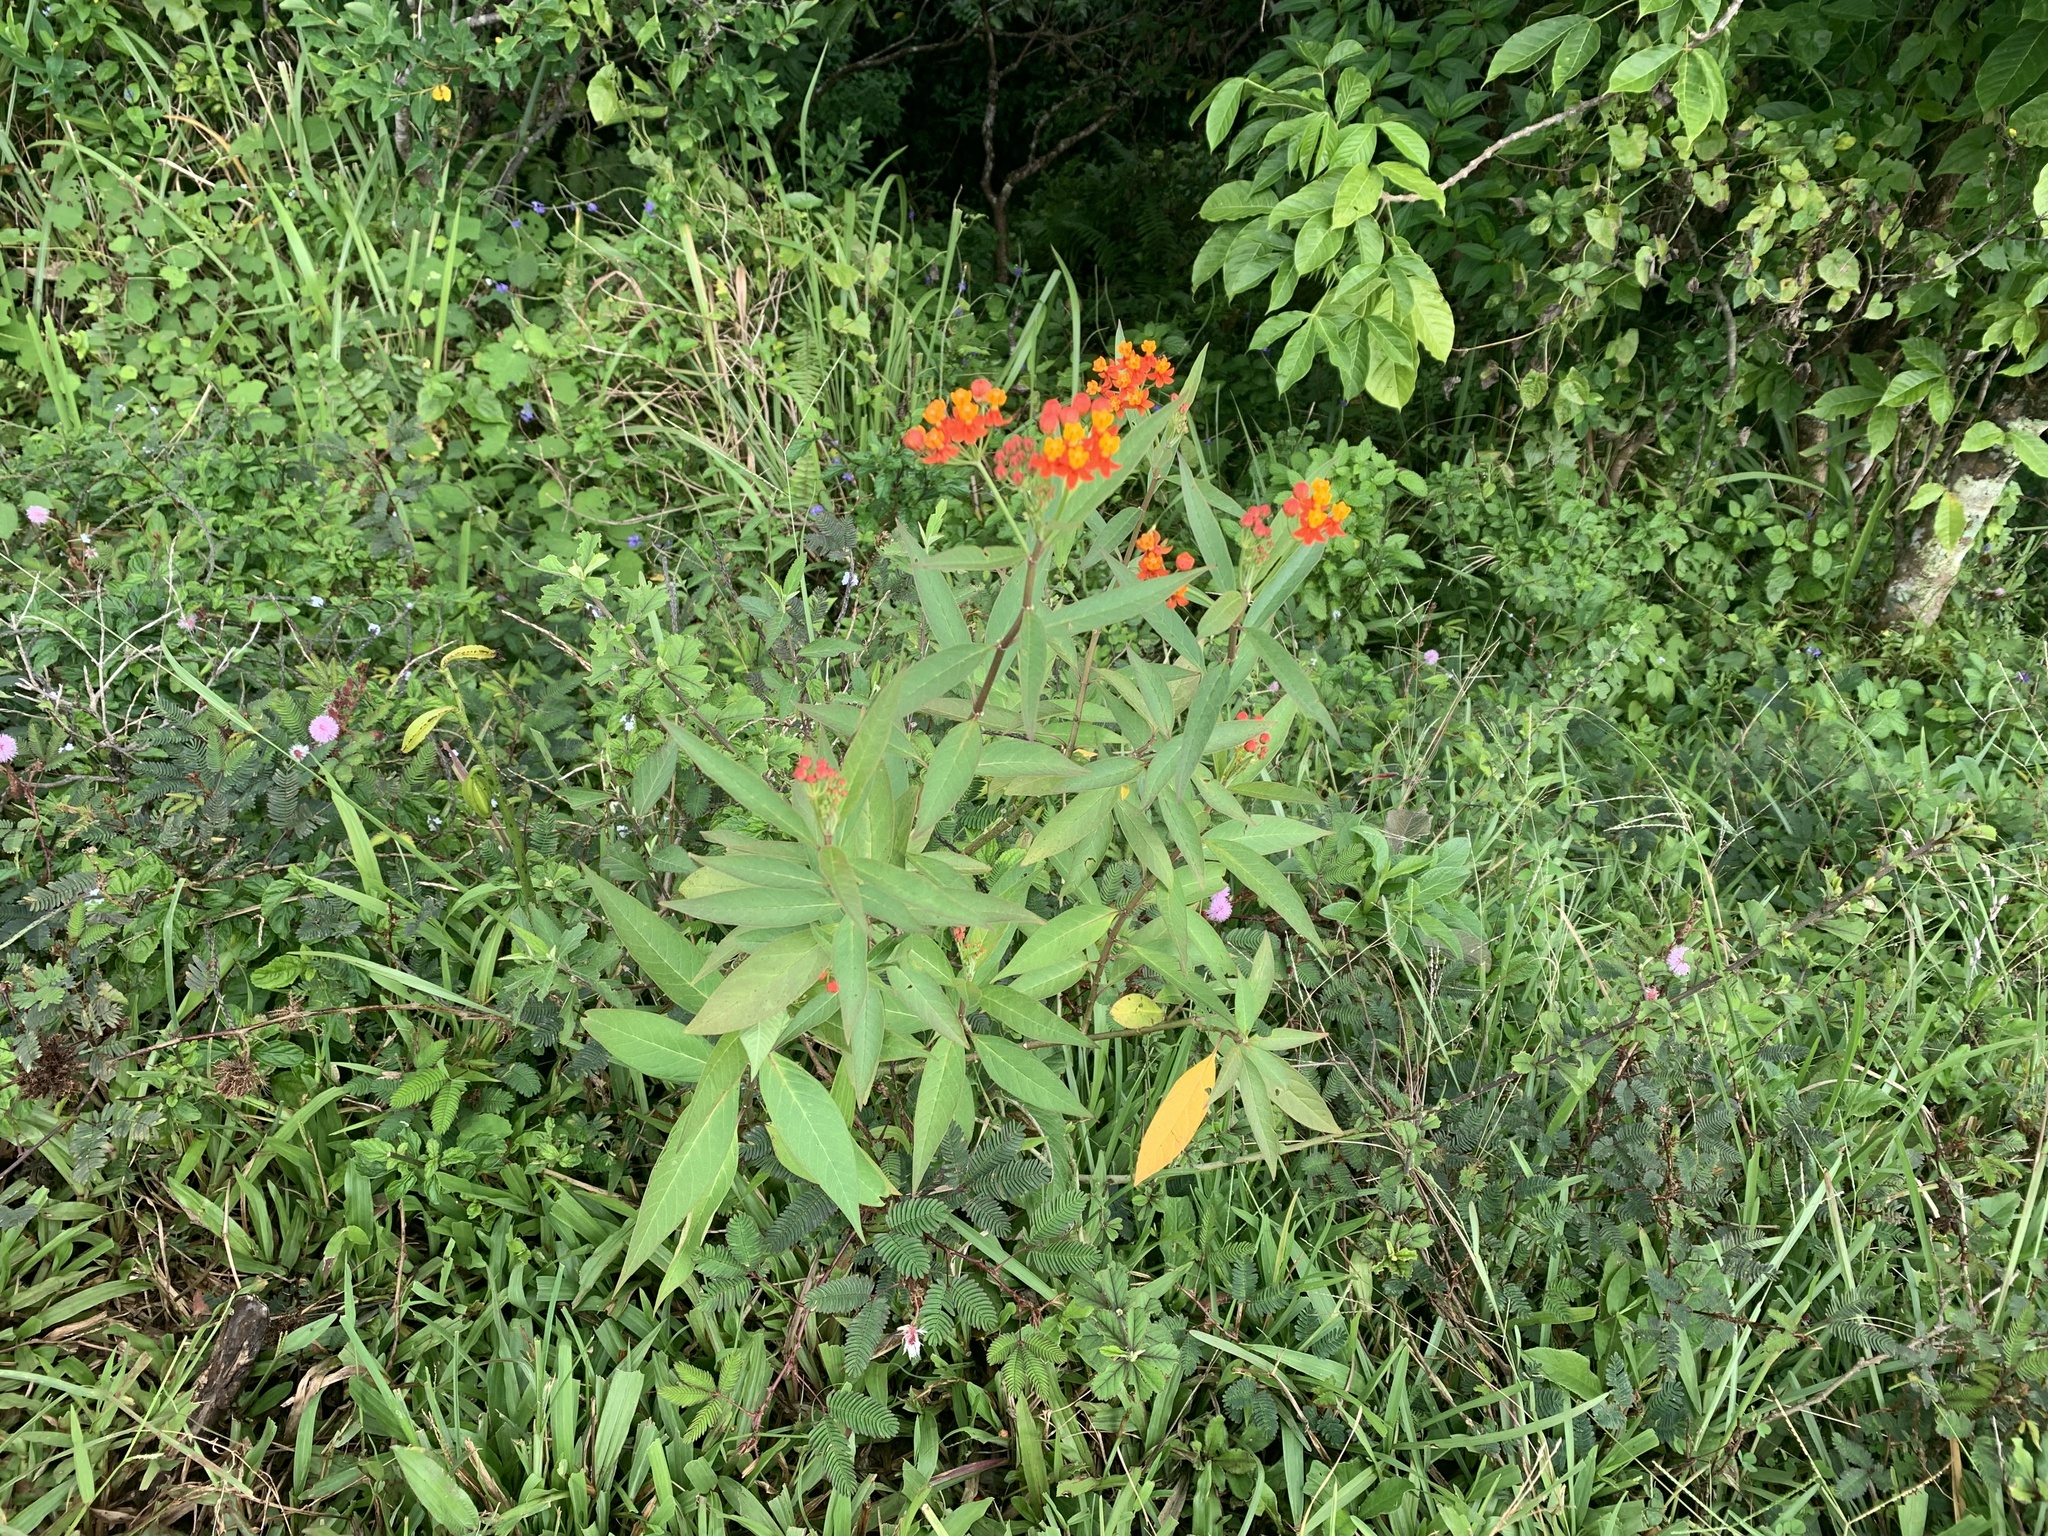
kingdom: Plantae
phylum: Tracheophyta
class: Magnoliopsida
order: Gentianales
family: Apocynaceae
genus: Asclepias
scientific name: Asclepias curassavica
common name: Bloodflower
